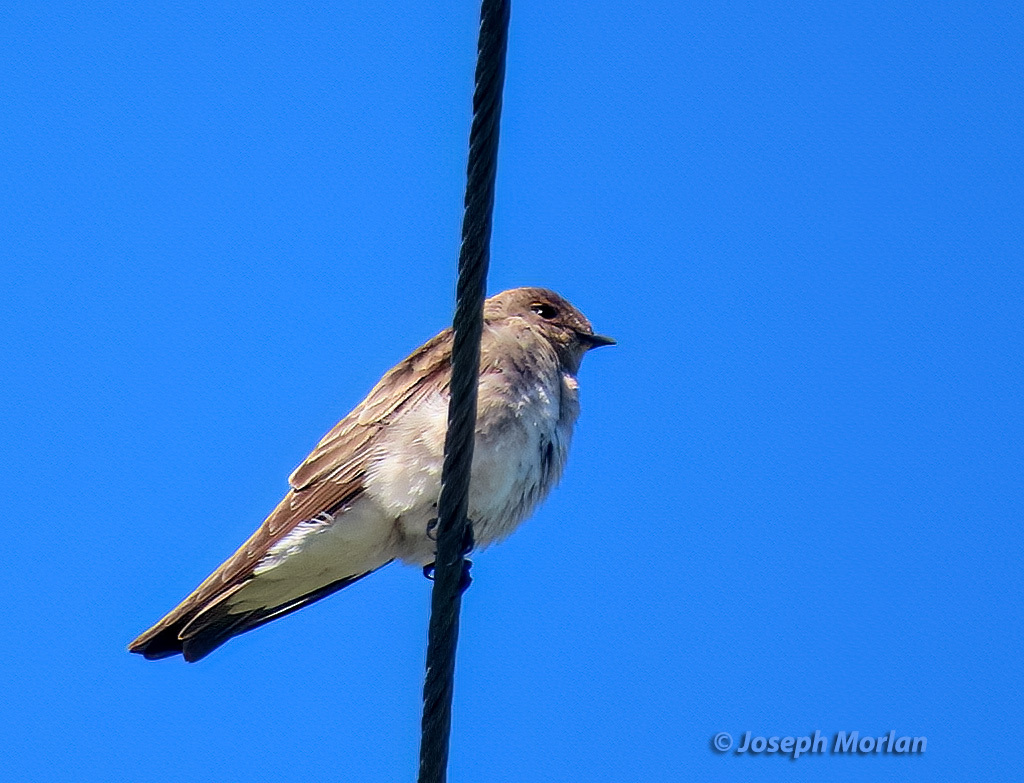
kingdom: Animalia
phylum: Chordata
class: Aves
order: Passeriformes
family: Hirundinidae
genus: Stelgidopteryx
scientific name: Stelgidopteryx serripennis
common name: Northern rough-winged swallow
